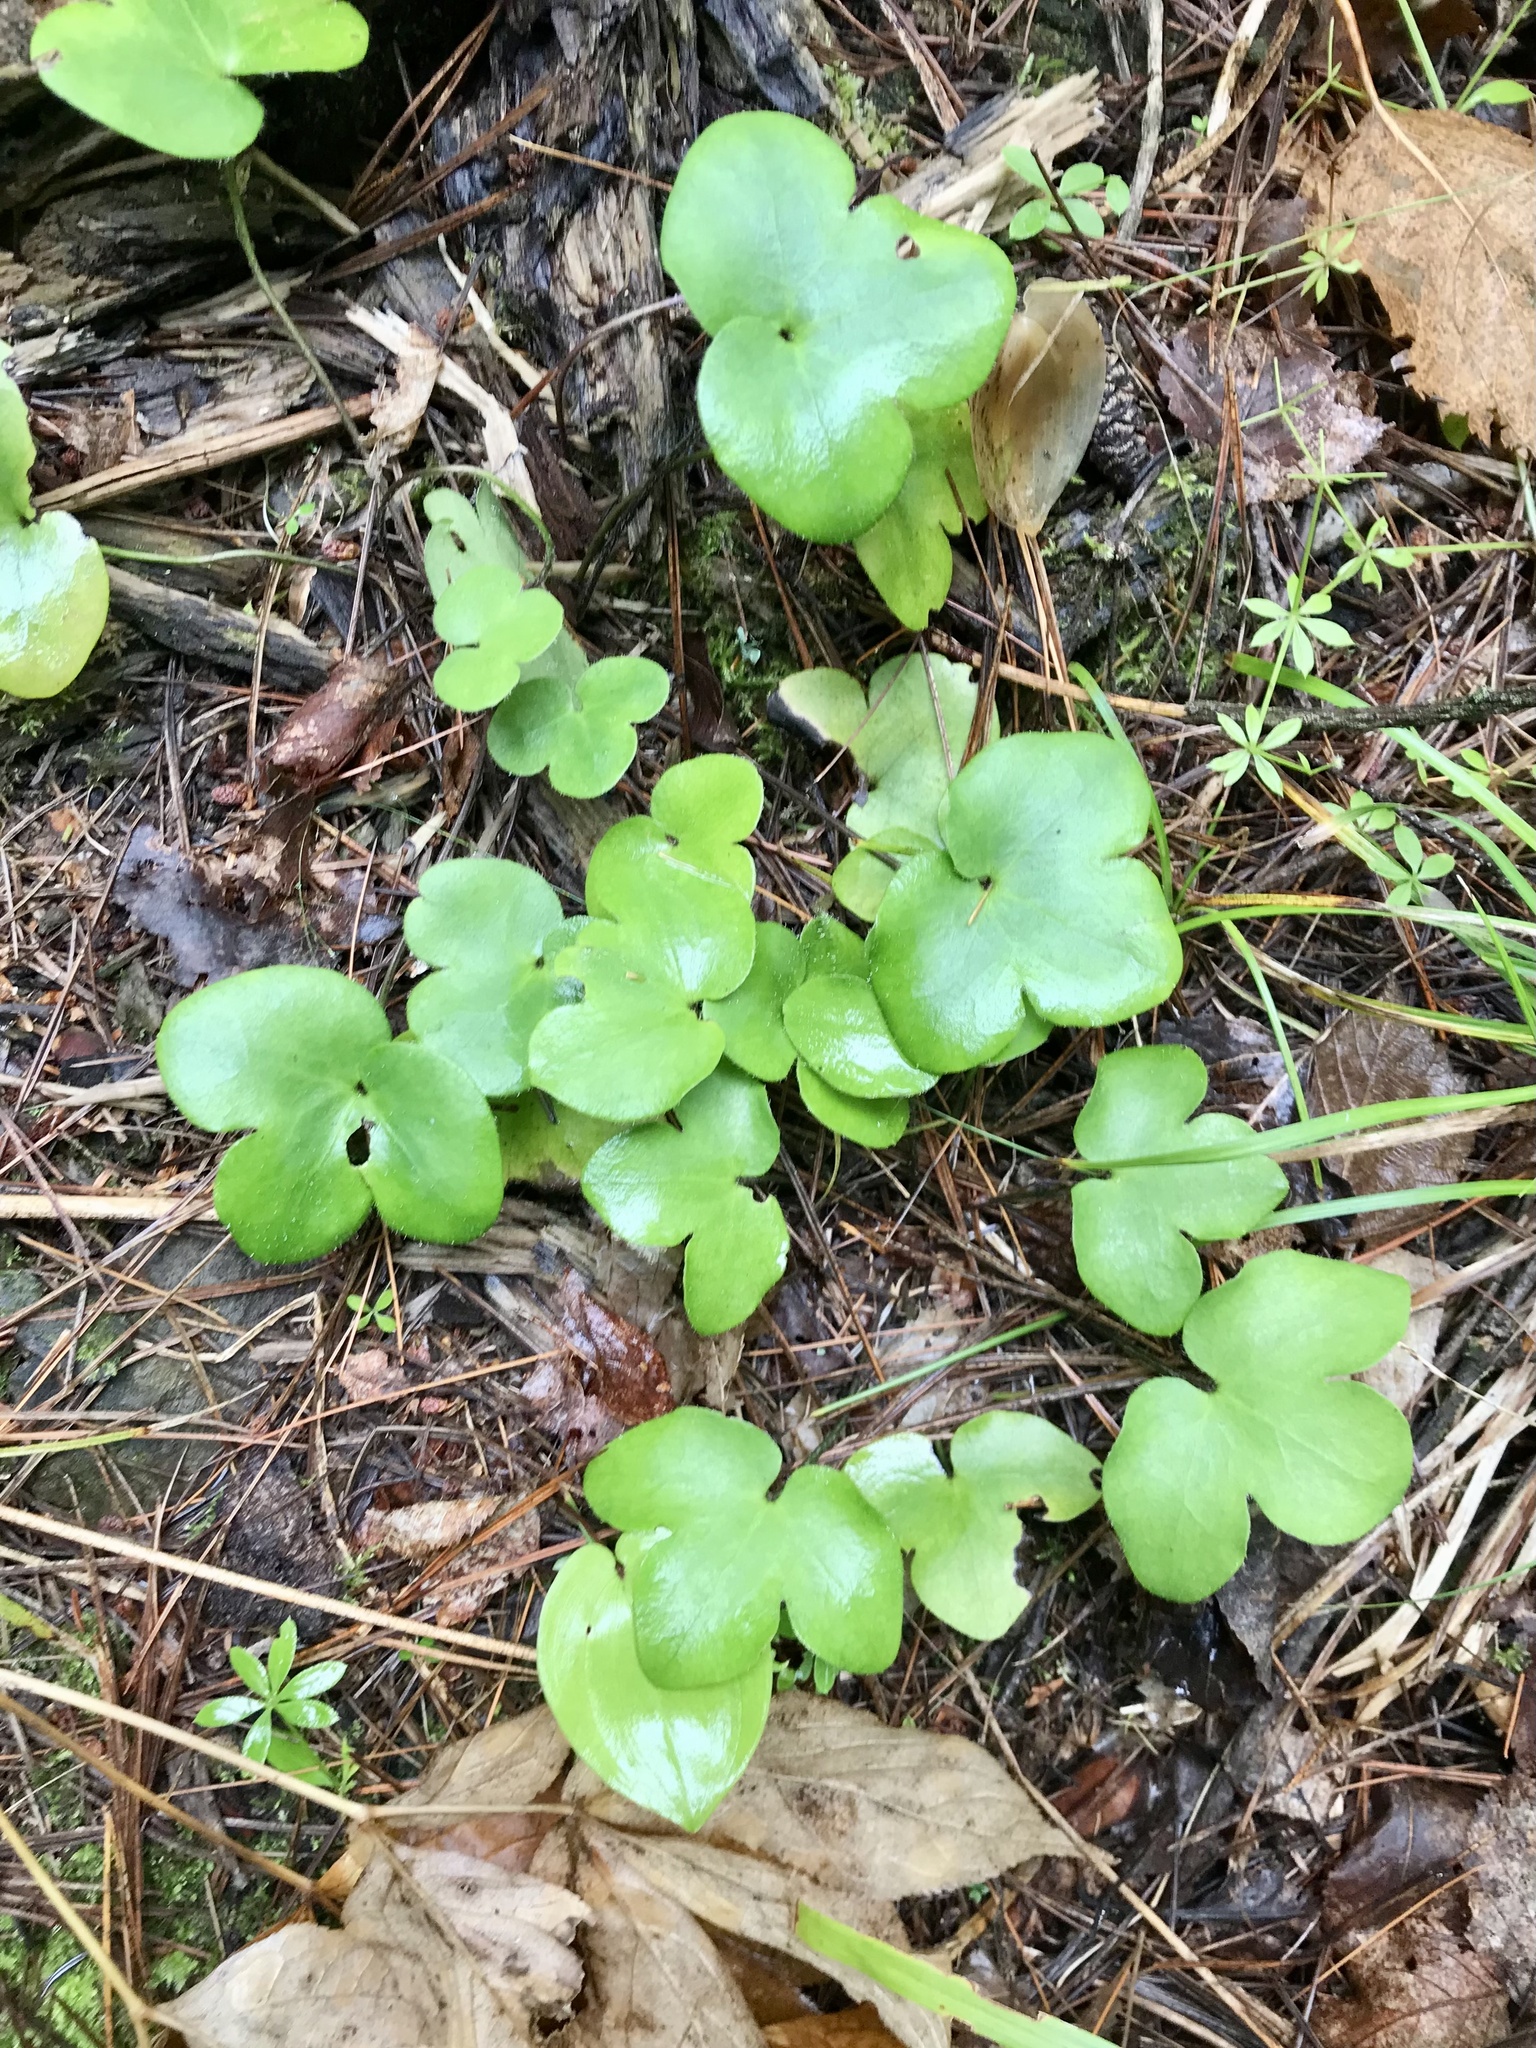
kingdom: Plantae
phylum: Tracheophyta
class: Magnoliopsida
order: Ranunculales
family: Ranunculaceae
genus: Hepatica
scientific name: Hepatica americana
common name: American hepatica
